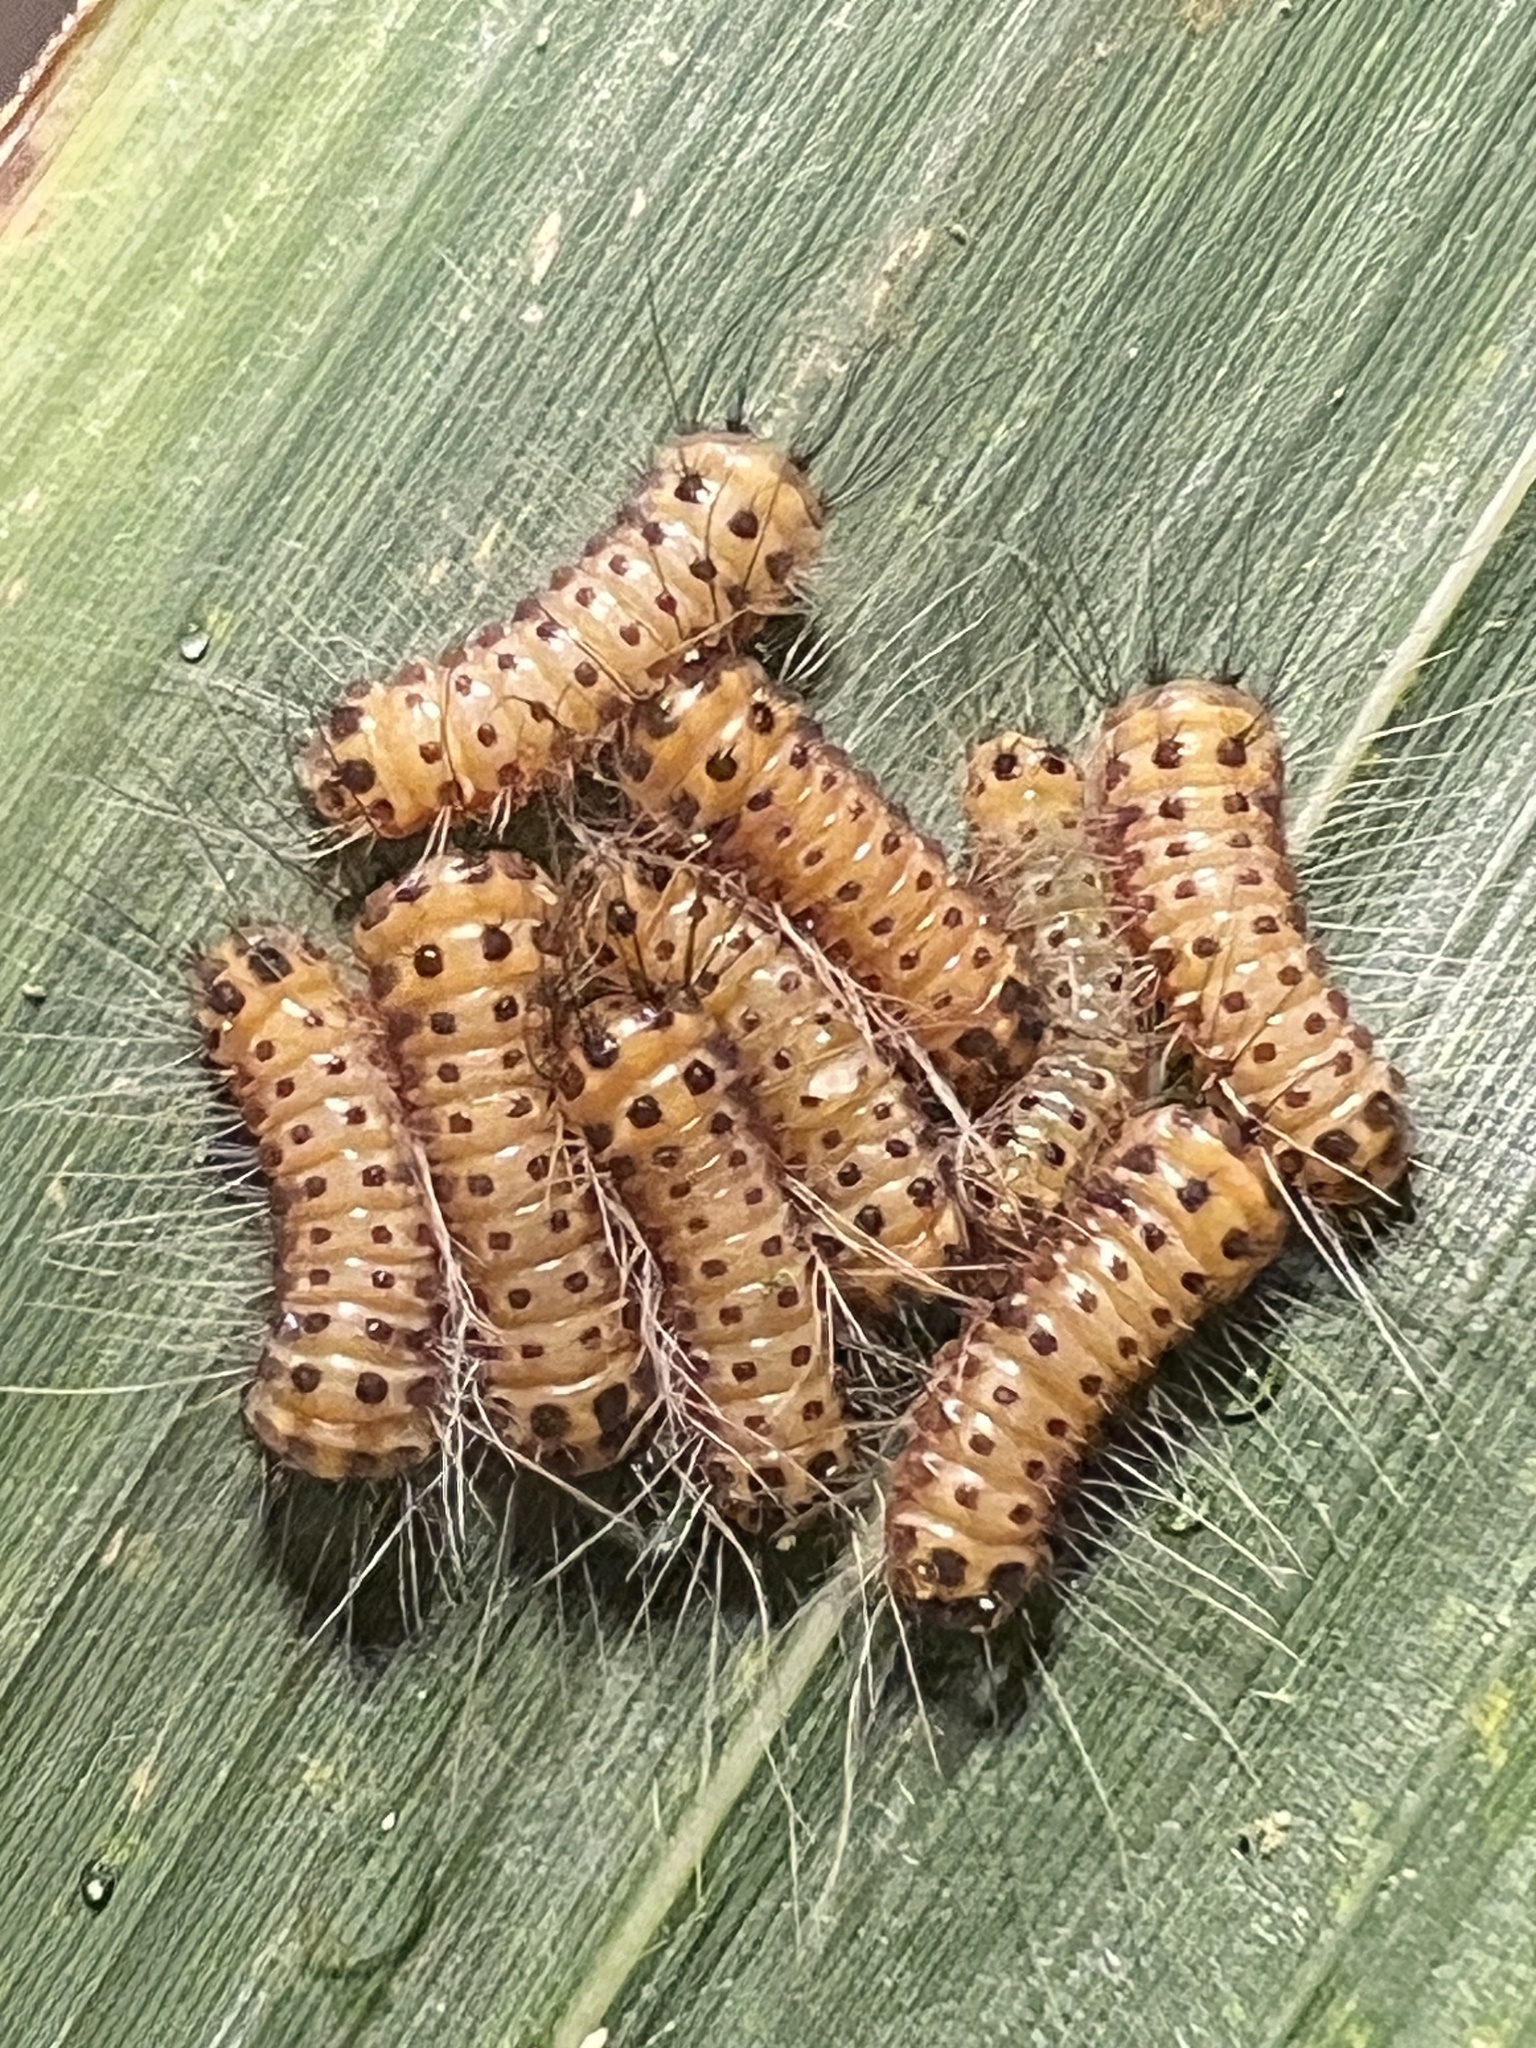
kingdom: Animalia
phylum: Arthropoda
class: Insecta
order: Lepidoptera
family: Zygaenidae
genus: Artona
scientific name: Artona martini
